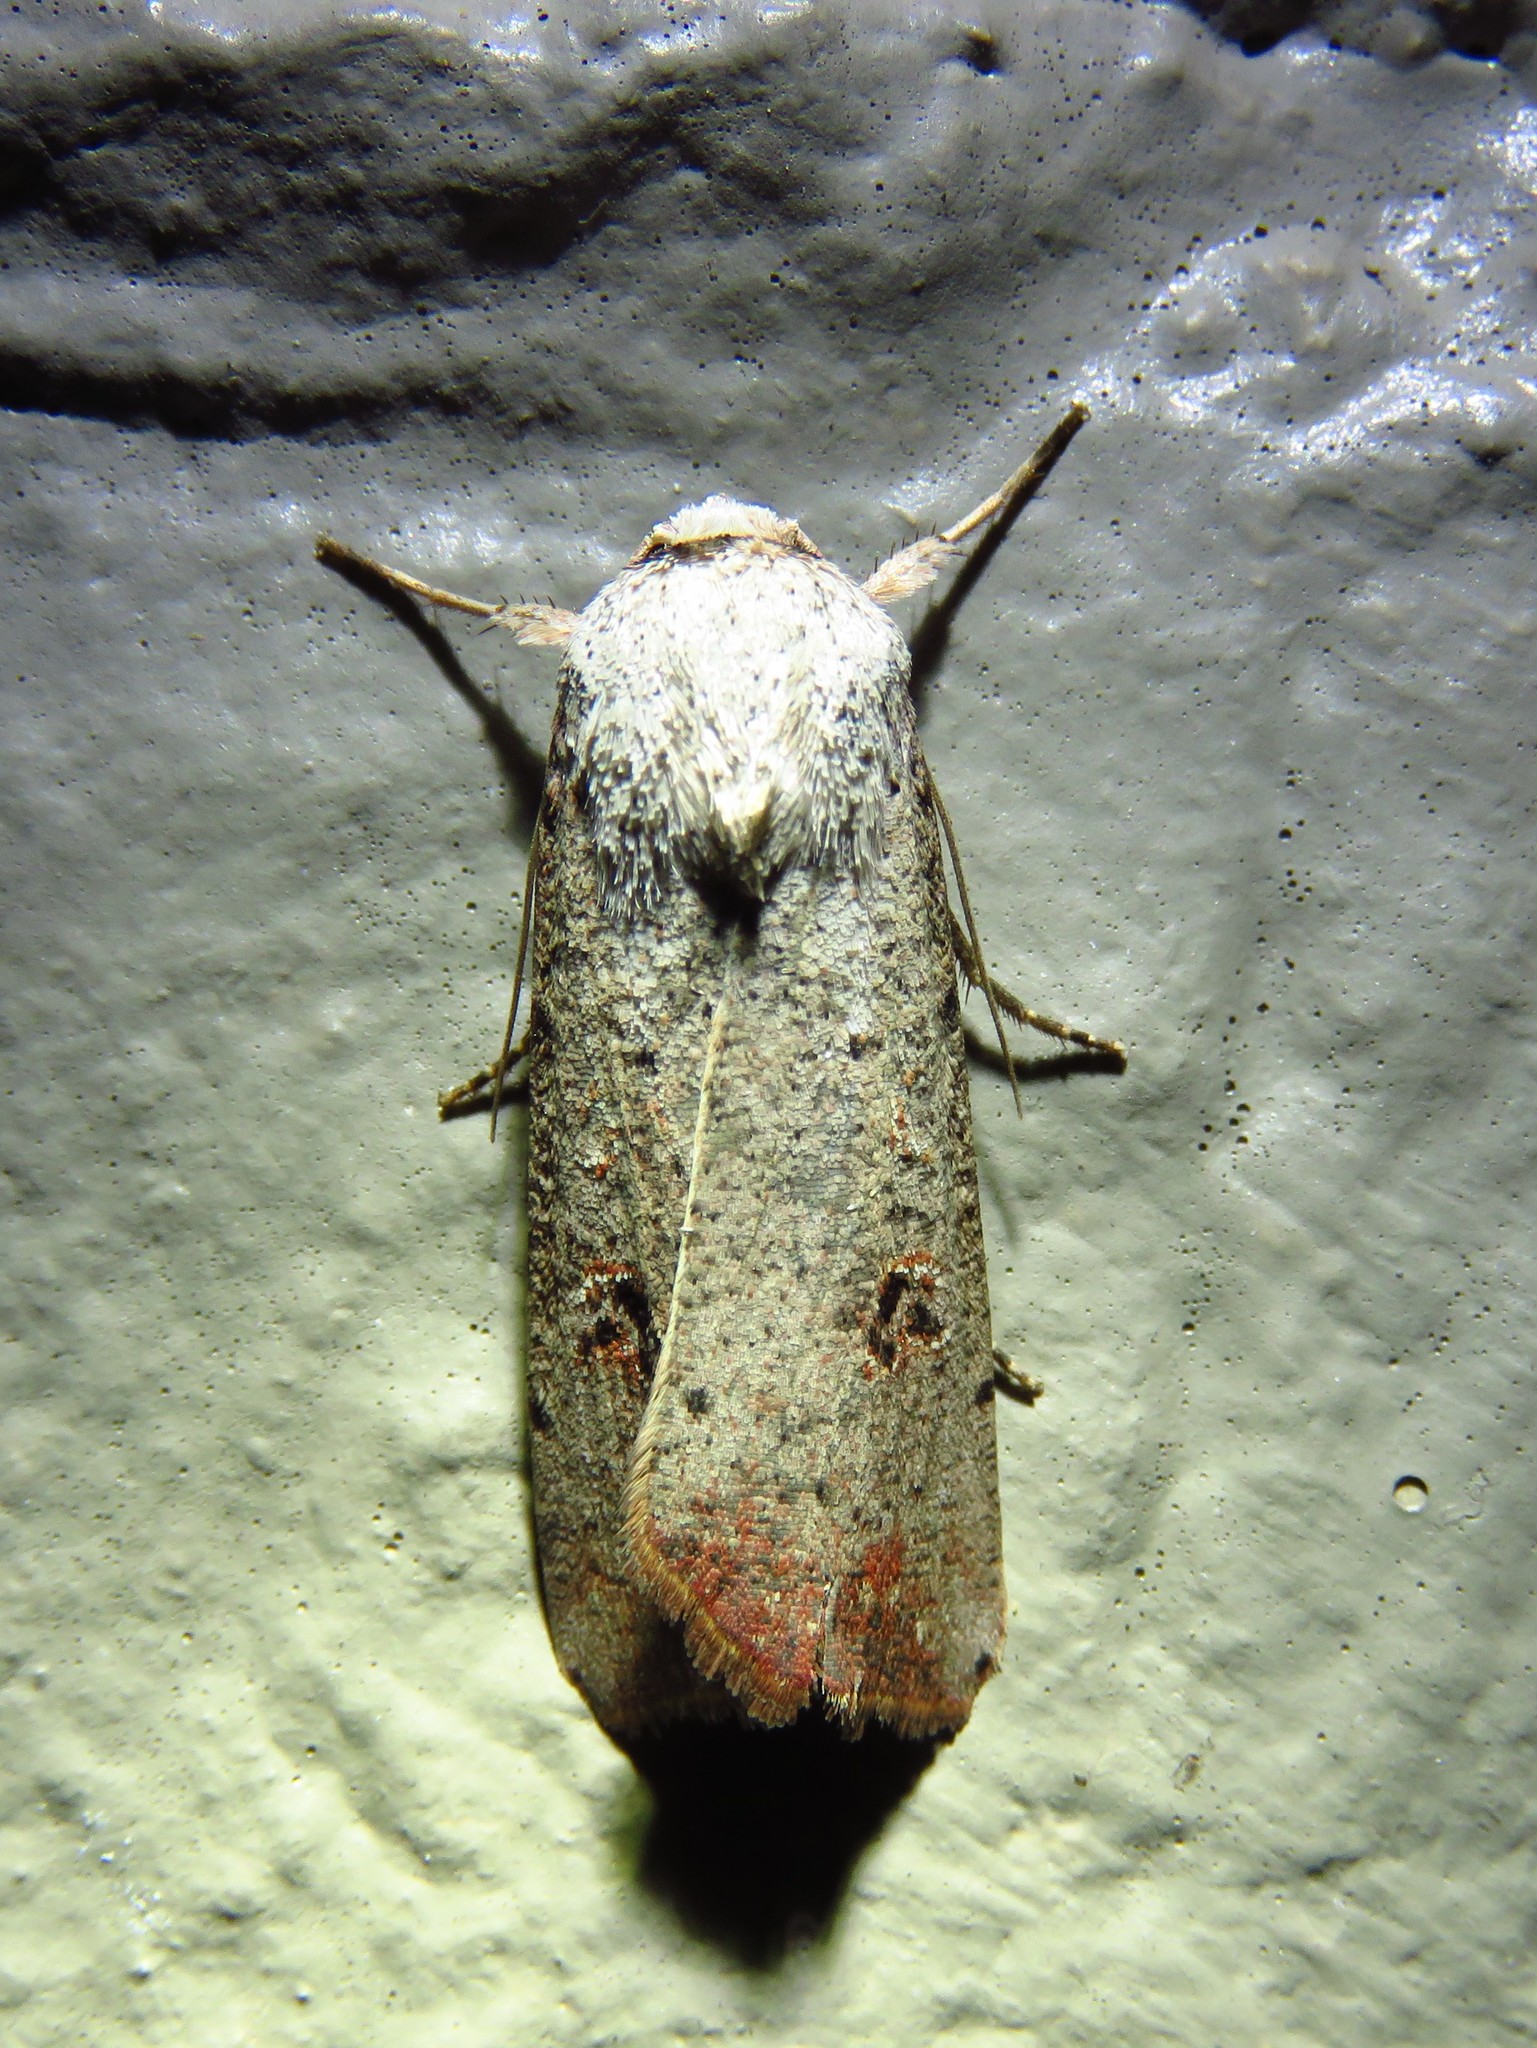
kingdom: Animalia
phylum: Arthropoda
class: Insecta
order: Lepidoptera
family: Noctuidae
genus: Anicla
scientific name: Anicla infecta
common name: Green cutworm
